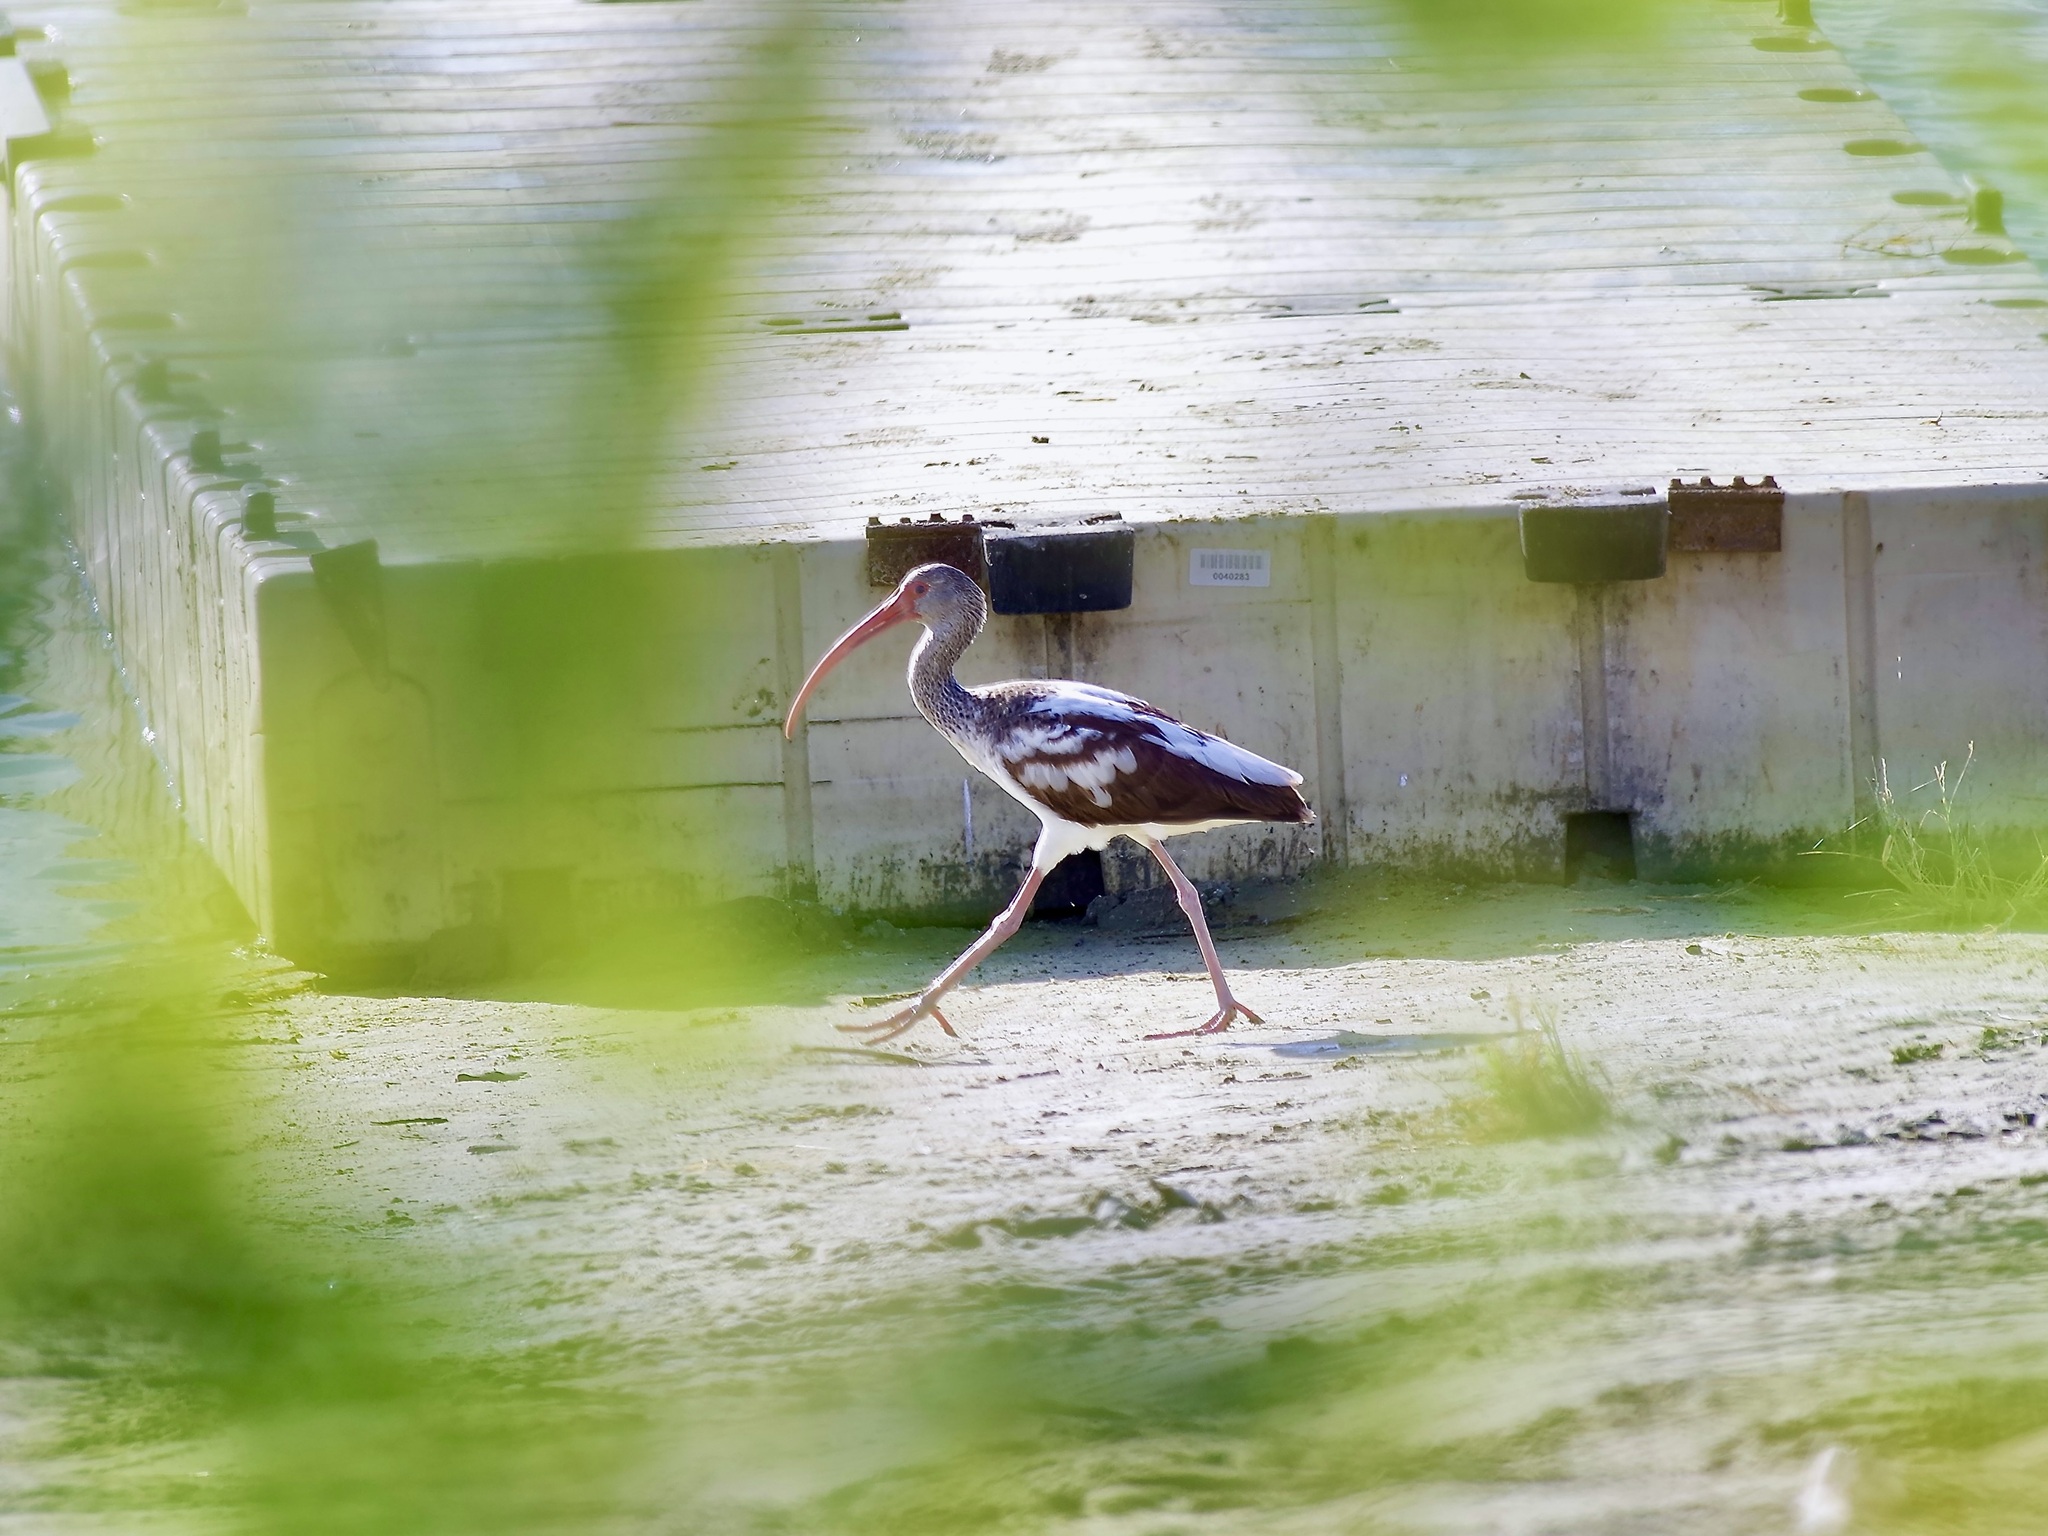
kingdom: Animalia
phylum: Chordata
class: Aves
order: Pelecaniformes
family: Threskiornithidae
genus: Eudocimus
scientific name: Eudocimus albus
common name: White ibis
